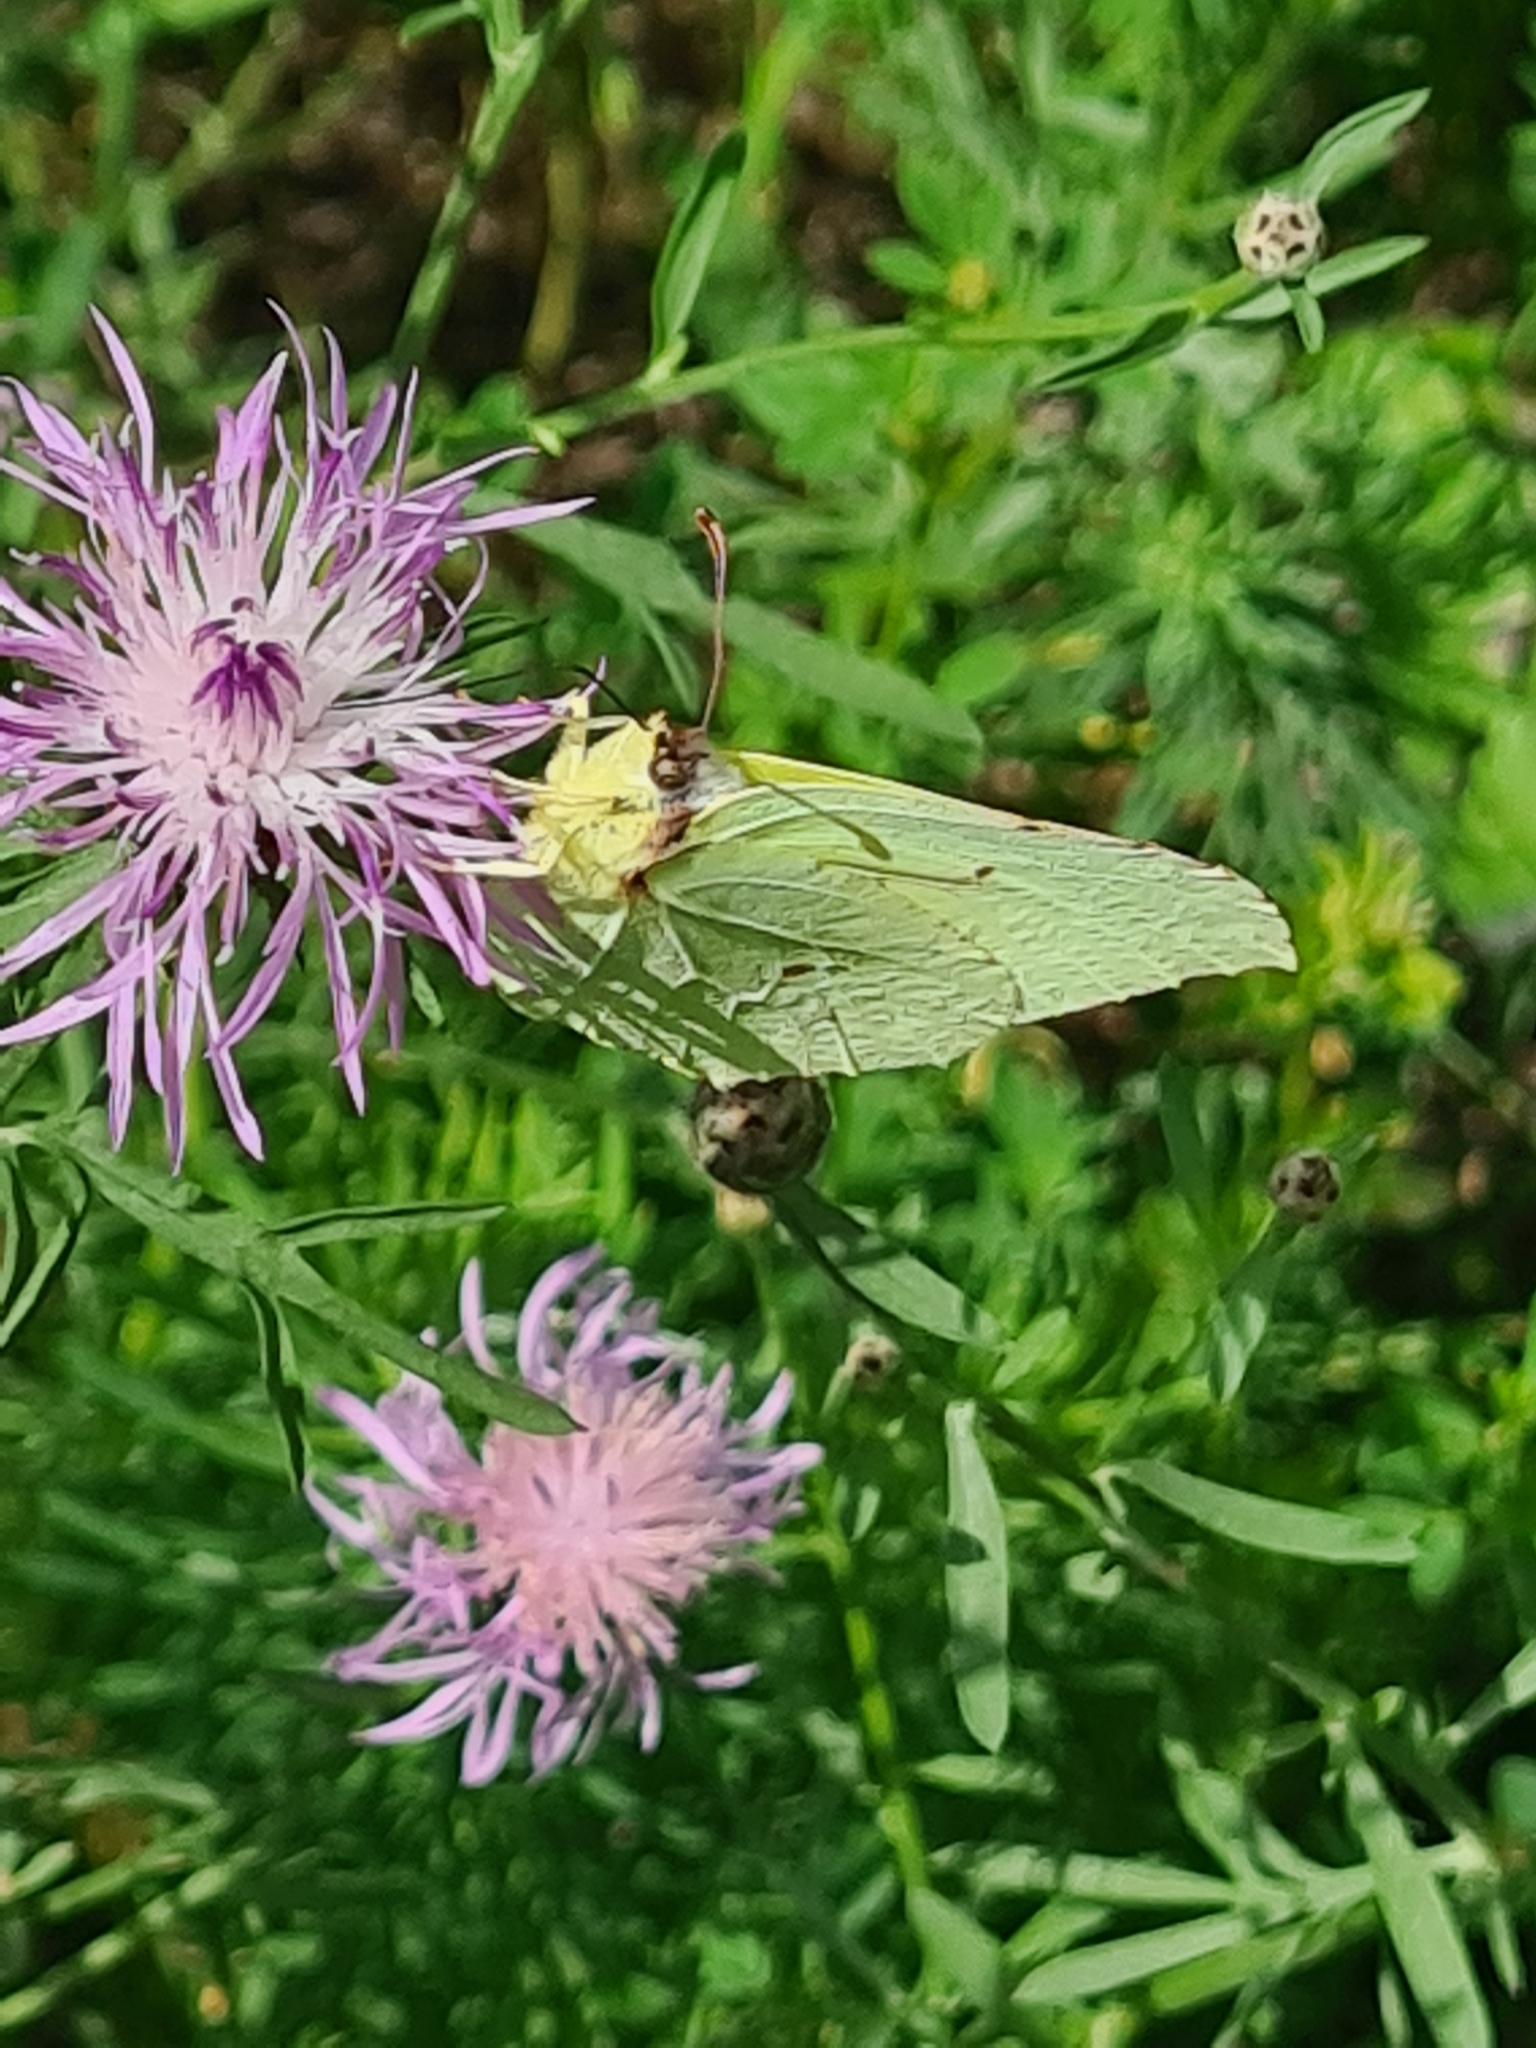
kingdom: Animalia
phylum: Arthropoda
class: Insecta
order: Lepidoptera
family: Pieridae
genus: Gonepteryx
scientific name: Gonepteryx rhamni
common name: Brimstone
